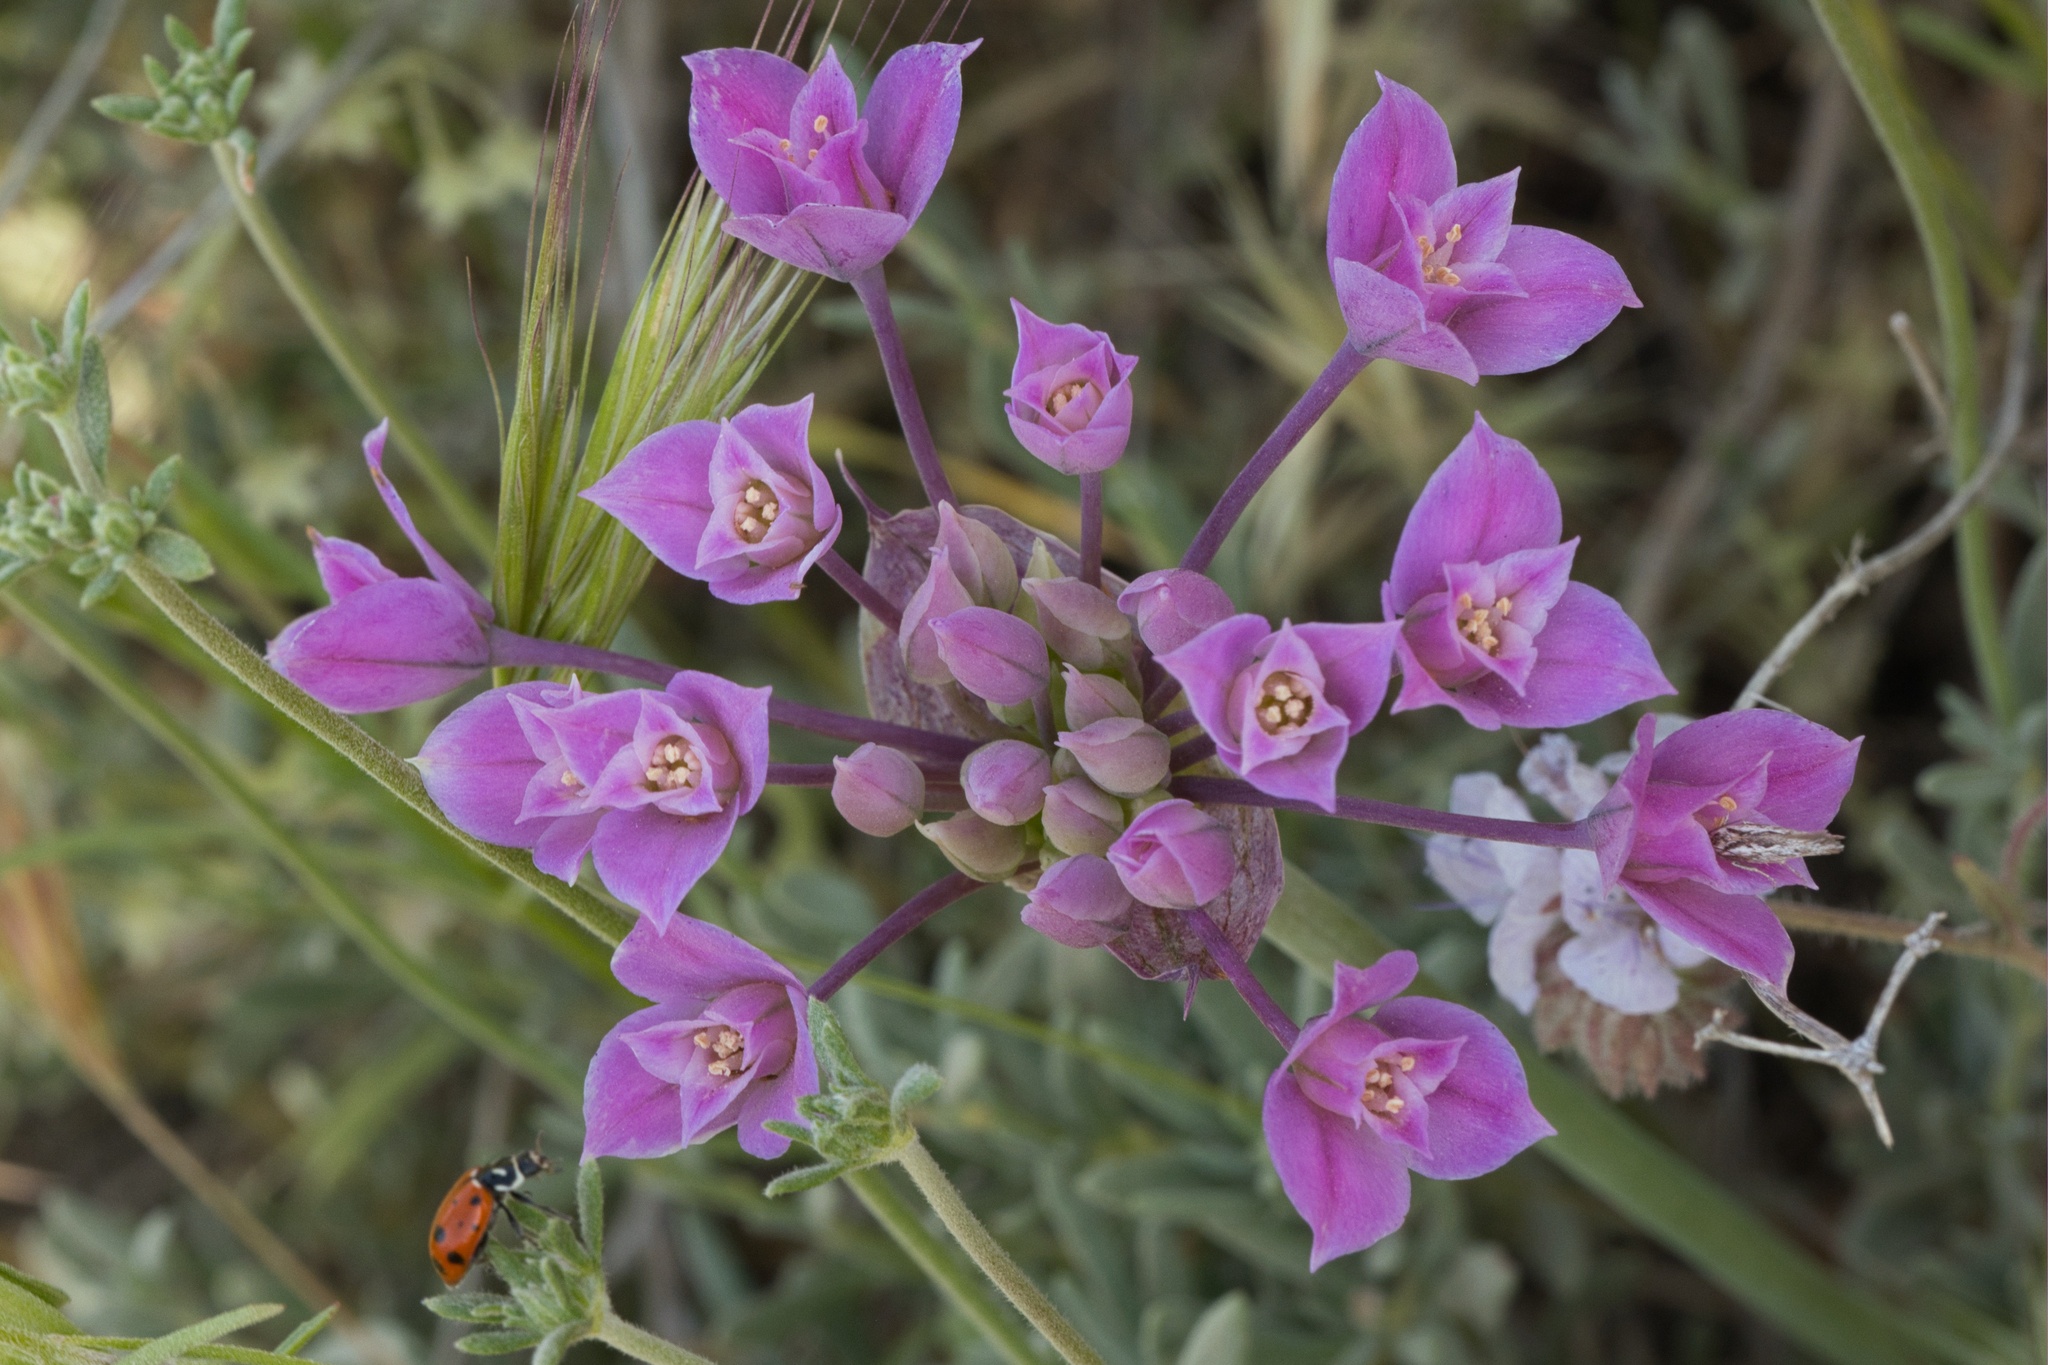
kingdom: Plantae
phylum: Tracheophyta
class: Liliopsida
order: Asparagales
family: Amaryllidaceae
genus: Allium
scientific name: Allium peninsulare
